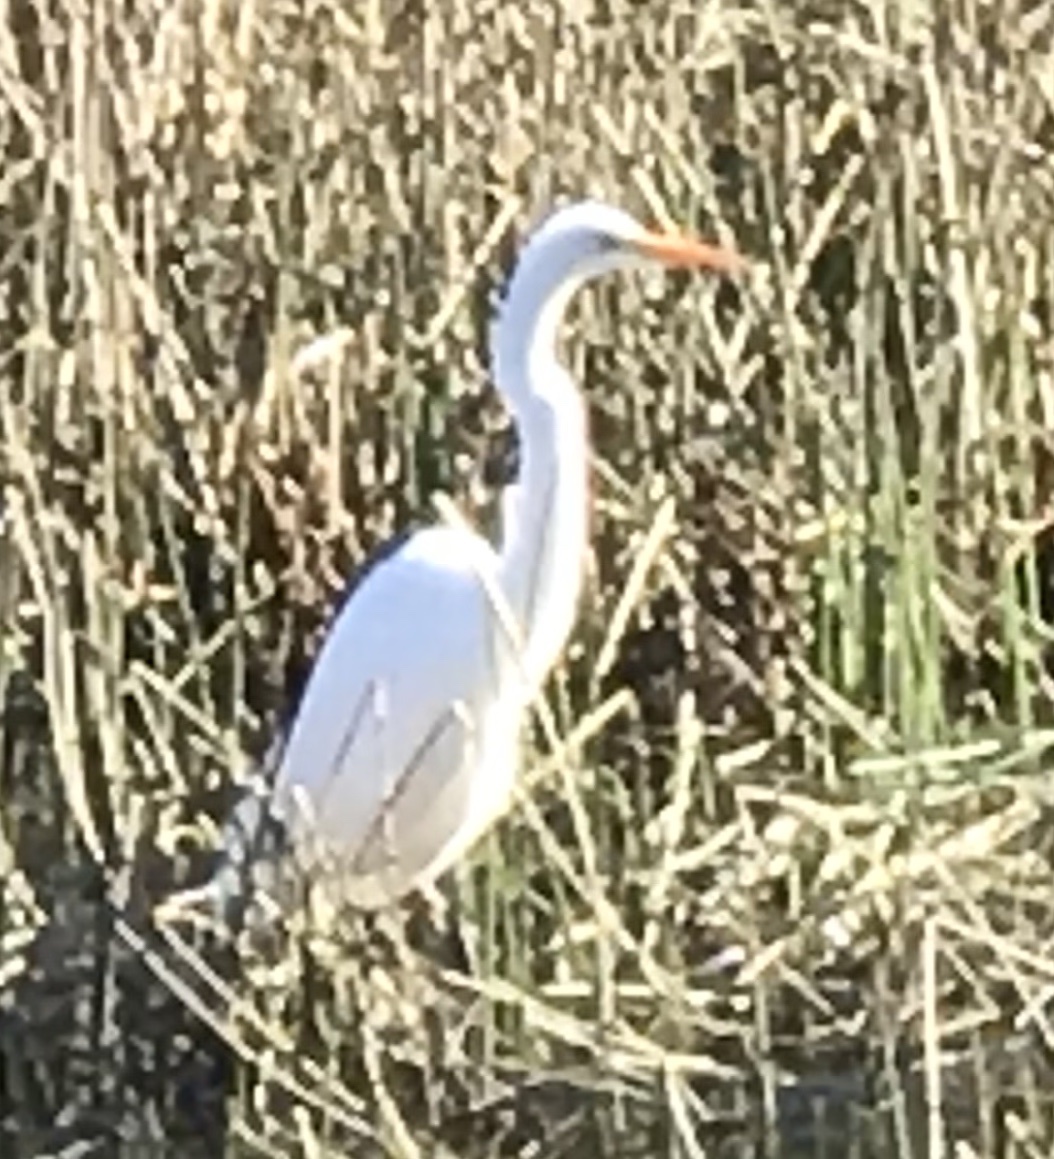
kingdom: Animalia
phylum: Chordata
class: Aves
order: Pelecaniformes
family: Ardeidae
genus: Ardea
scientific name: Ardea alba
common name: Great egret
